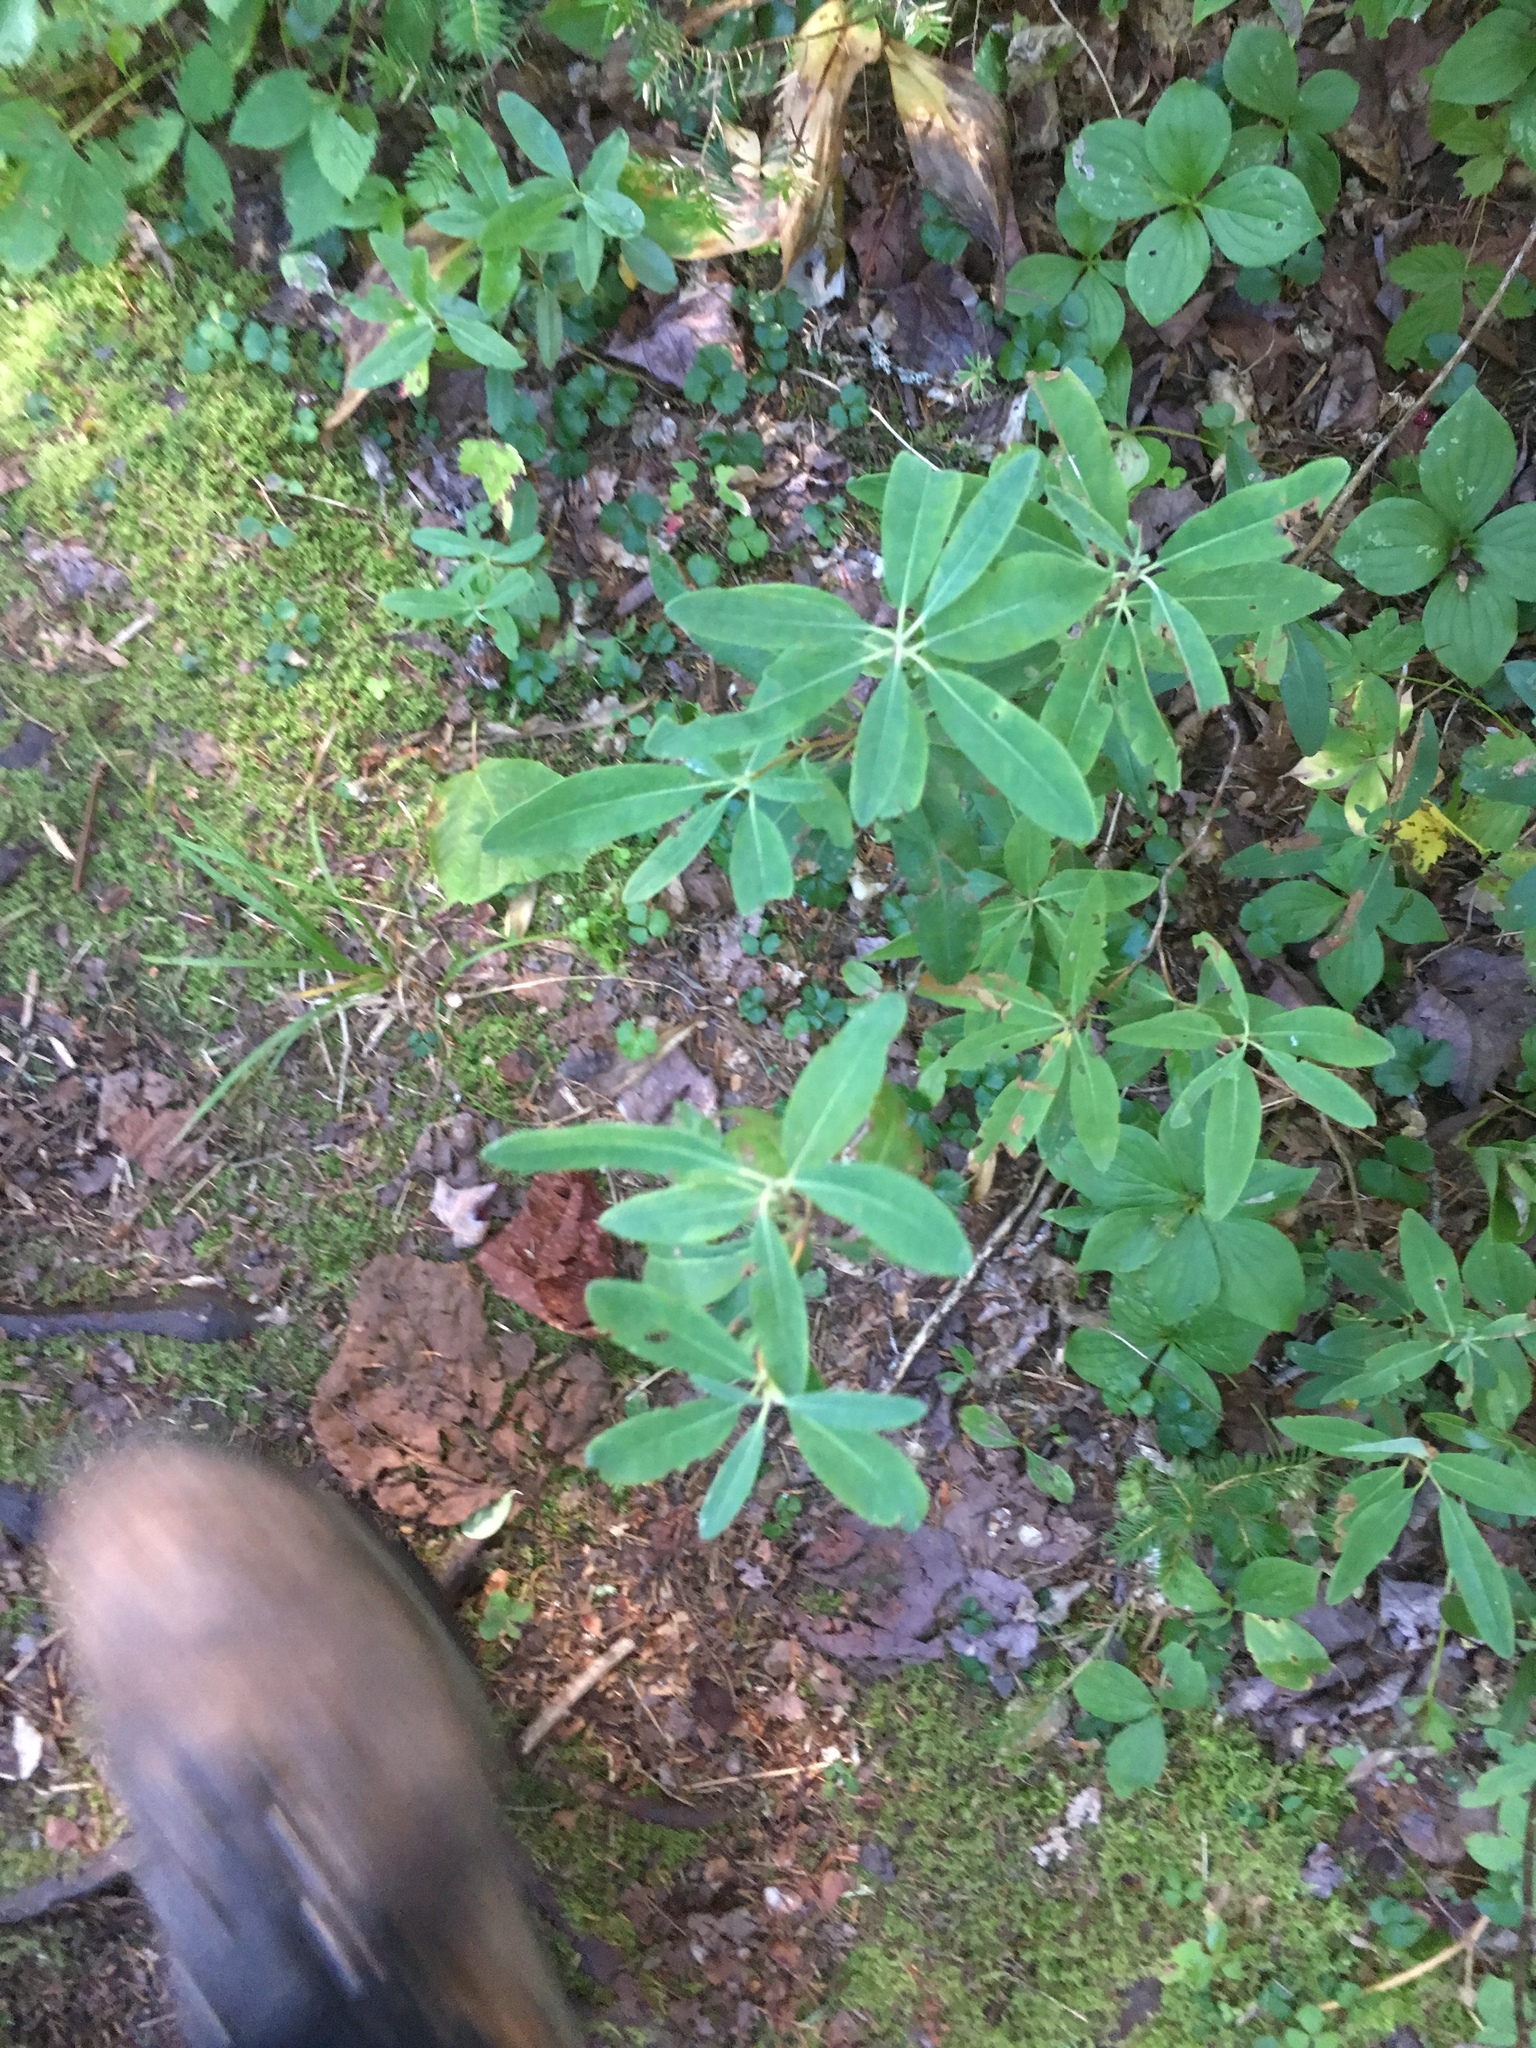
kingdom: Plantae
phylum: Tracheophyta
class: Magnoliopsida
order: Ericales
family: Ericaceae
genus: Kalmia
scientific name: Kalmia angustifolia
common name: Sheep-laurel
